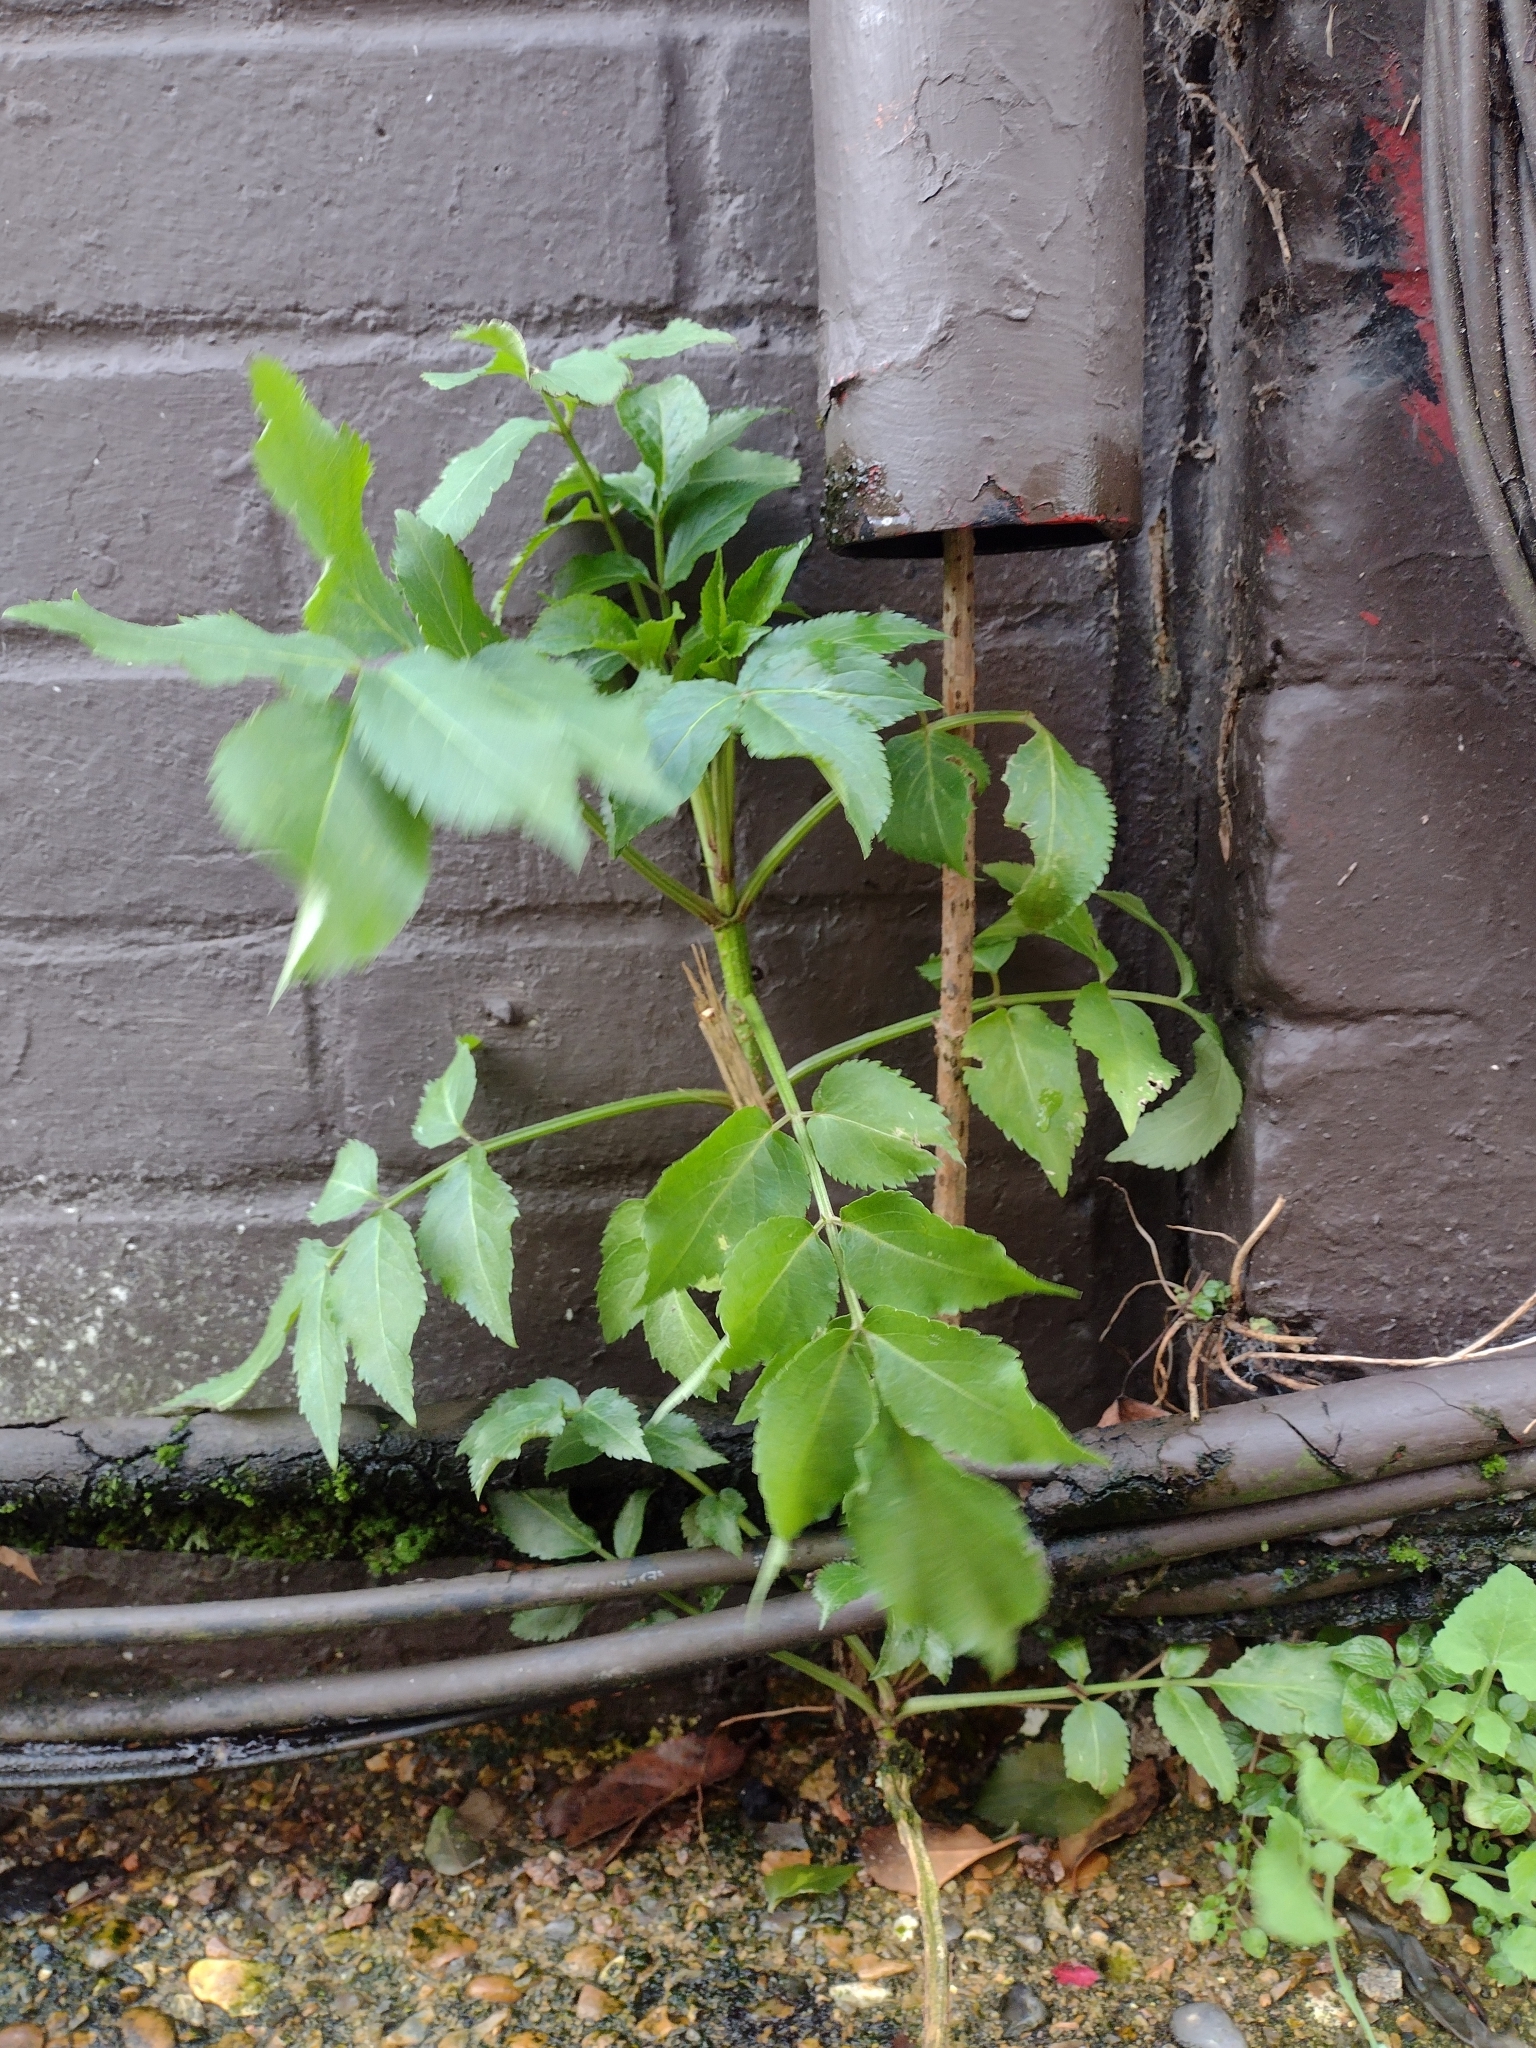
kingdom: Plantae
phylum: Tracheophyta
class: Magnoliopsida
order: Dipsacales
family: Viburnaceae
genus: Sambucus
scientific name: Sambucus nigra
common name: Elder
